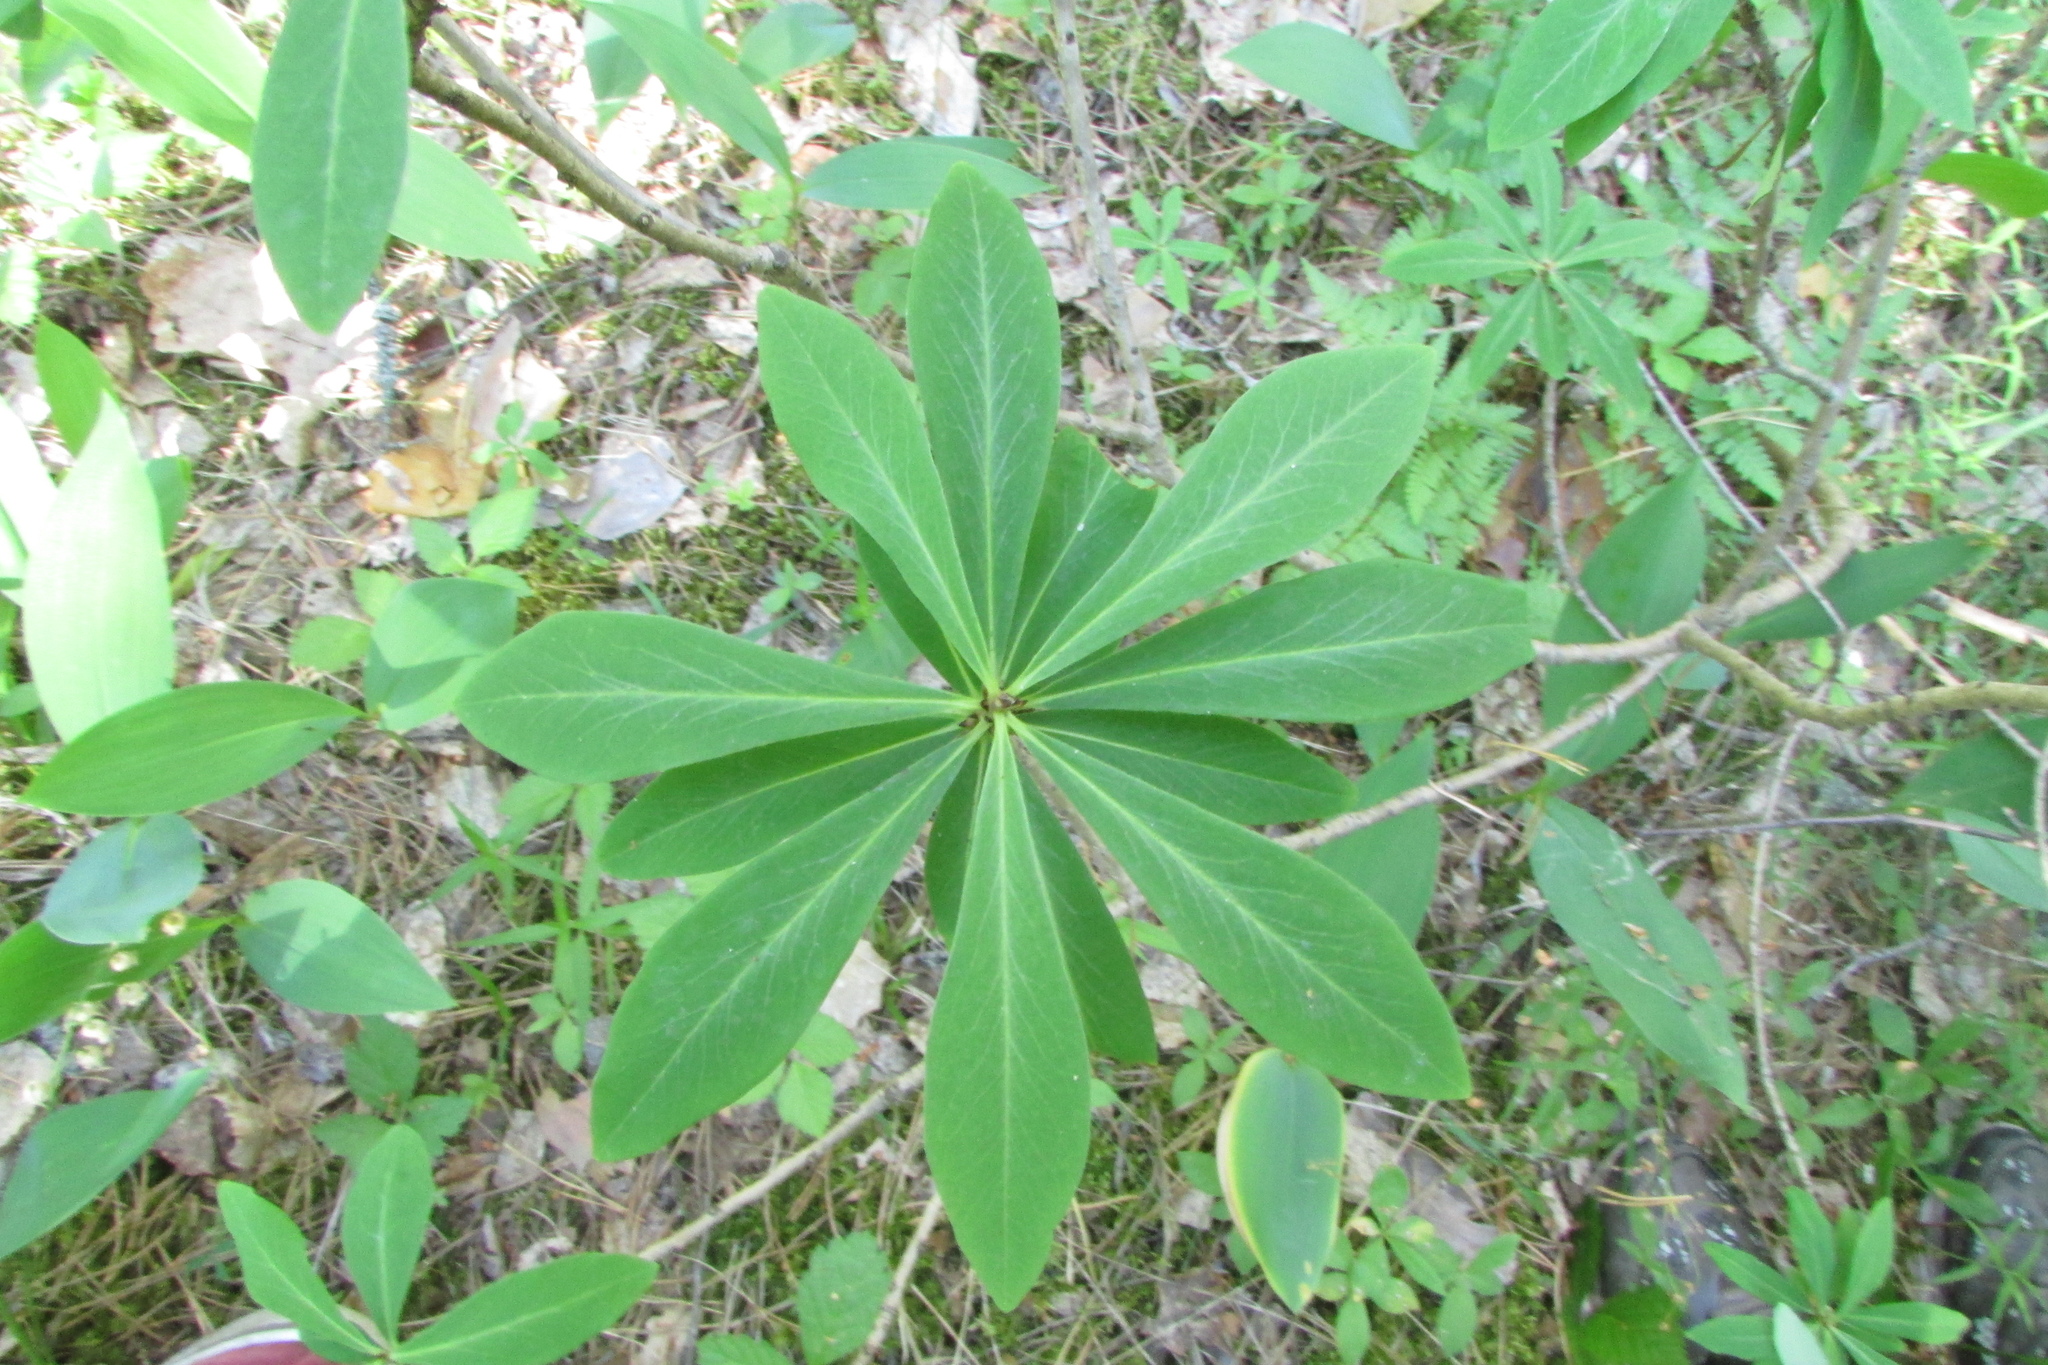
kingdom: Plantae
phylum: Tracheophyta
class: Magnoliopsida
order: Malvales
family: Thymelaeaceae
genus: Daphne
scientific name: Daphne mezereum
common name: Mezereon
